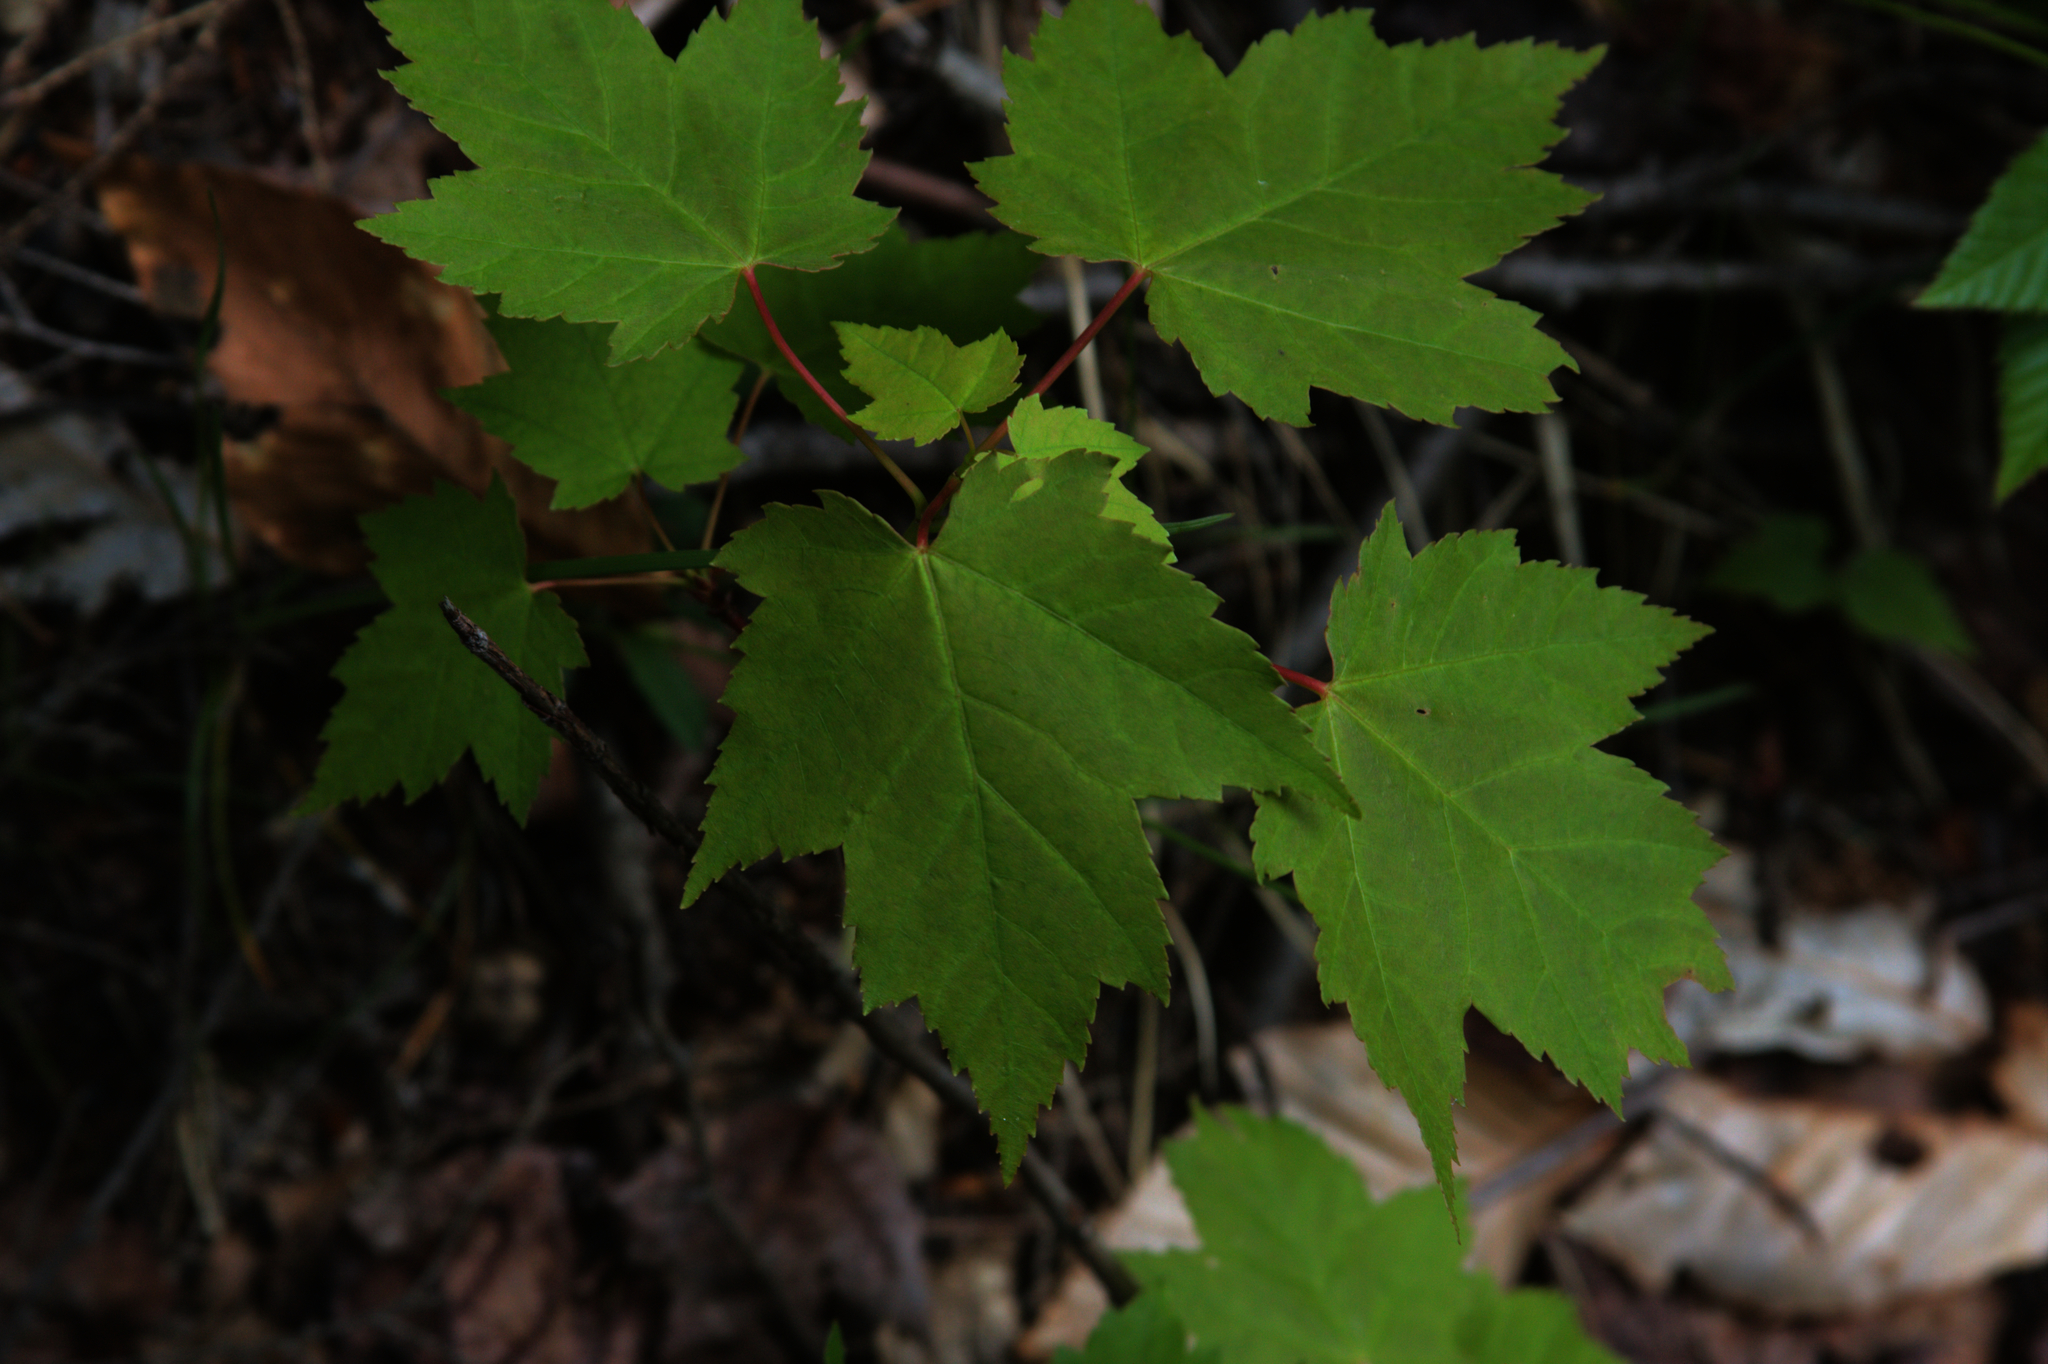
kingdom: Plantae
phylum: Tracheophyta
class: Magnoliopsida
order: Sapindales
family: Sapindaceae
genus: Acer
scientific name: Acer rubrum
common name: Red maple
